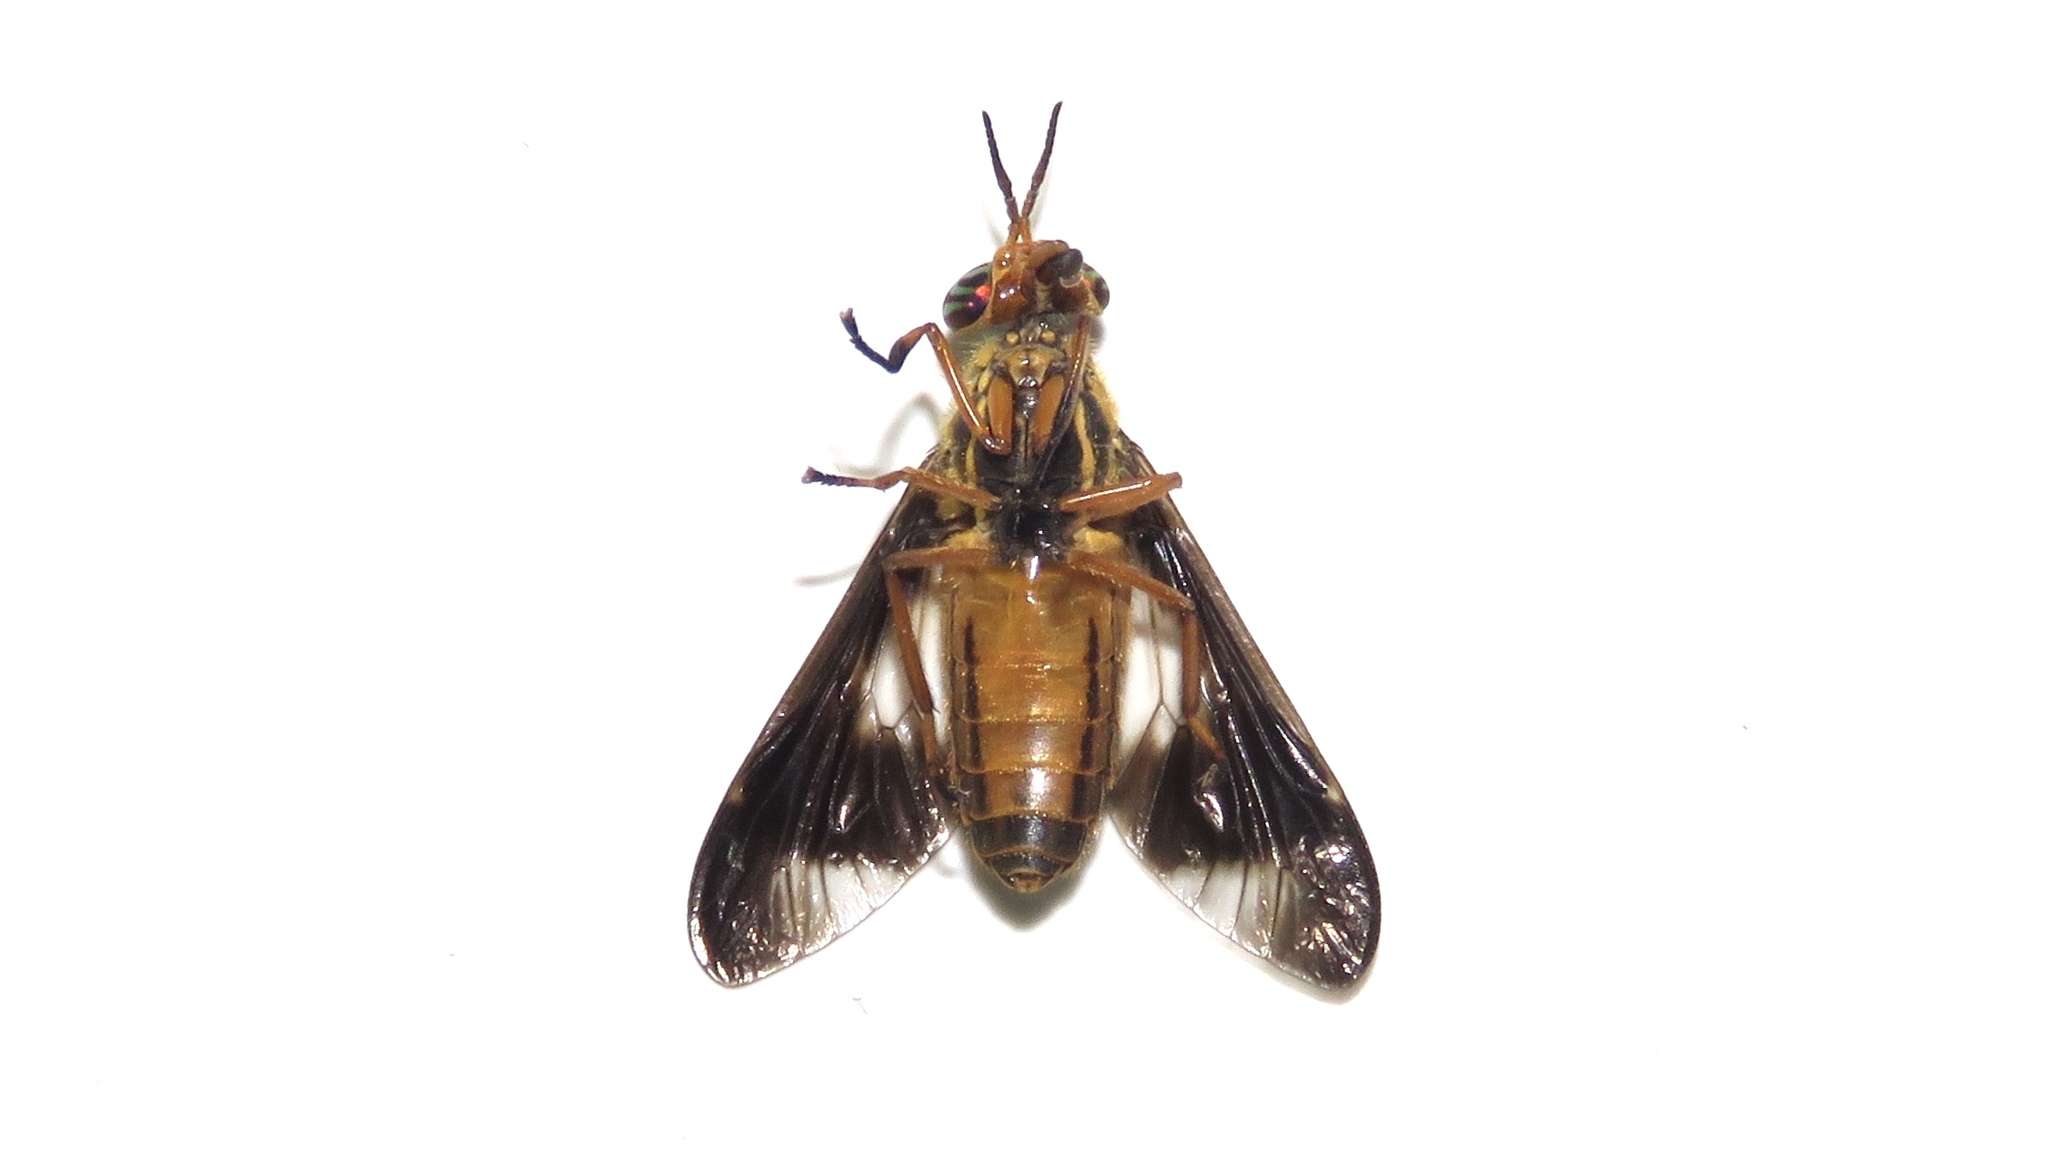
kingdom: Animalia
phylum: Arthropoda
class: Insecta
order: Diptera
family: Tabanidae
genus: Chrysops
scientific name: Chrysops vittatus
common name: Striped deer fly
